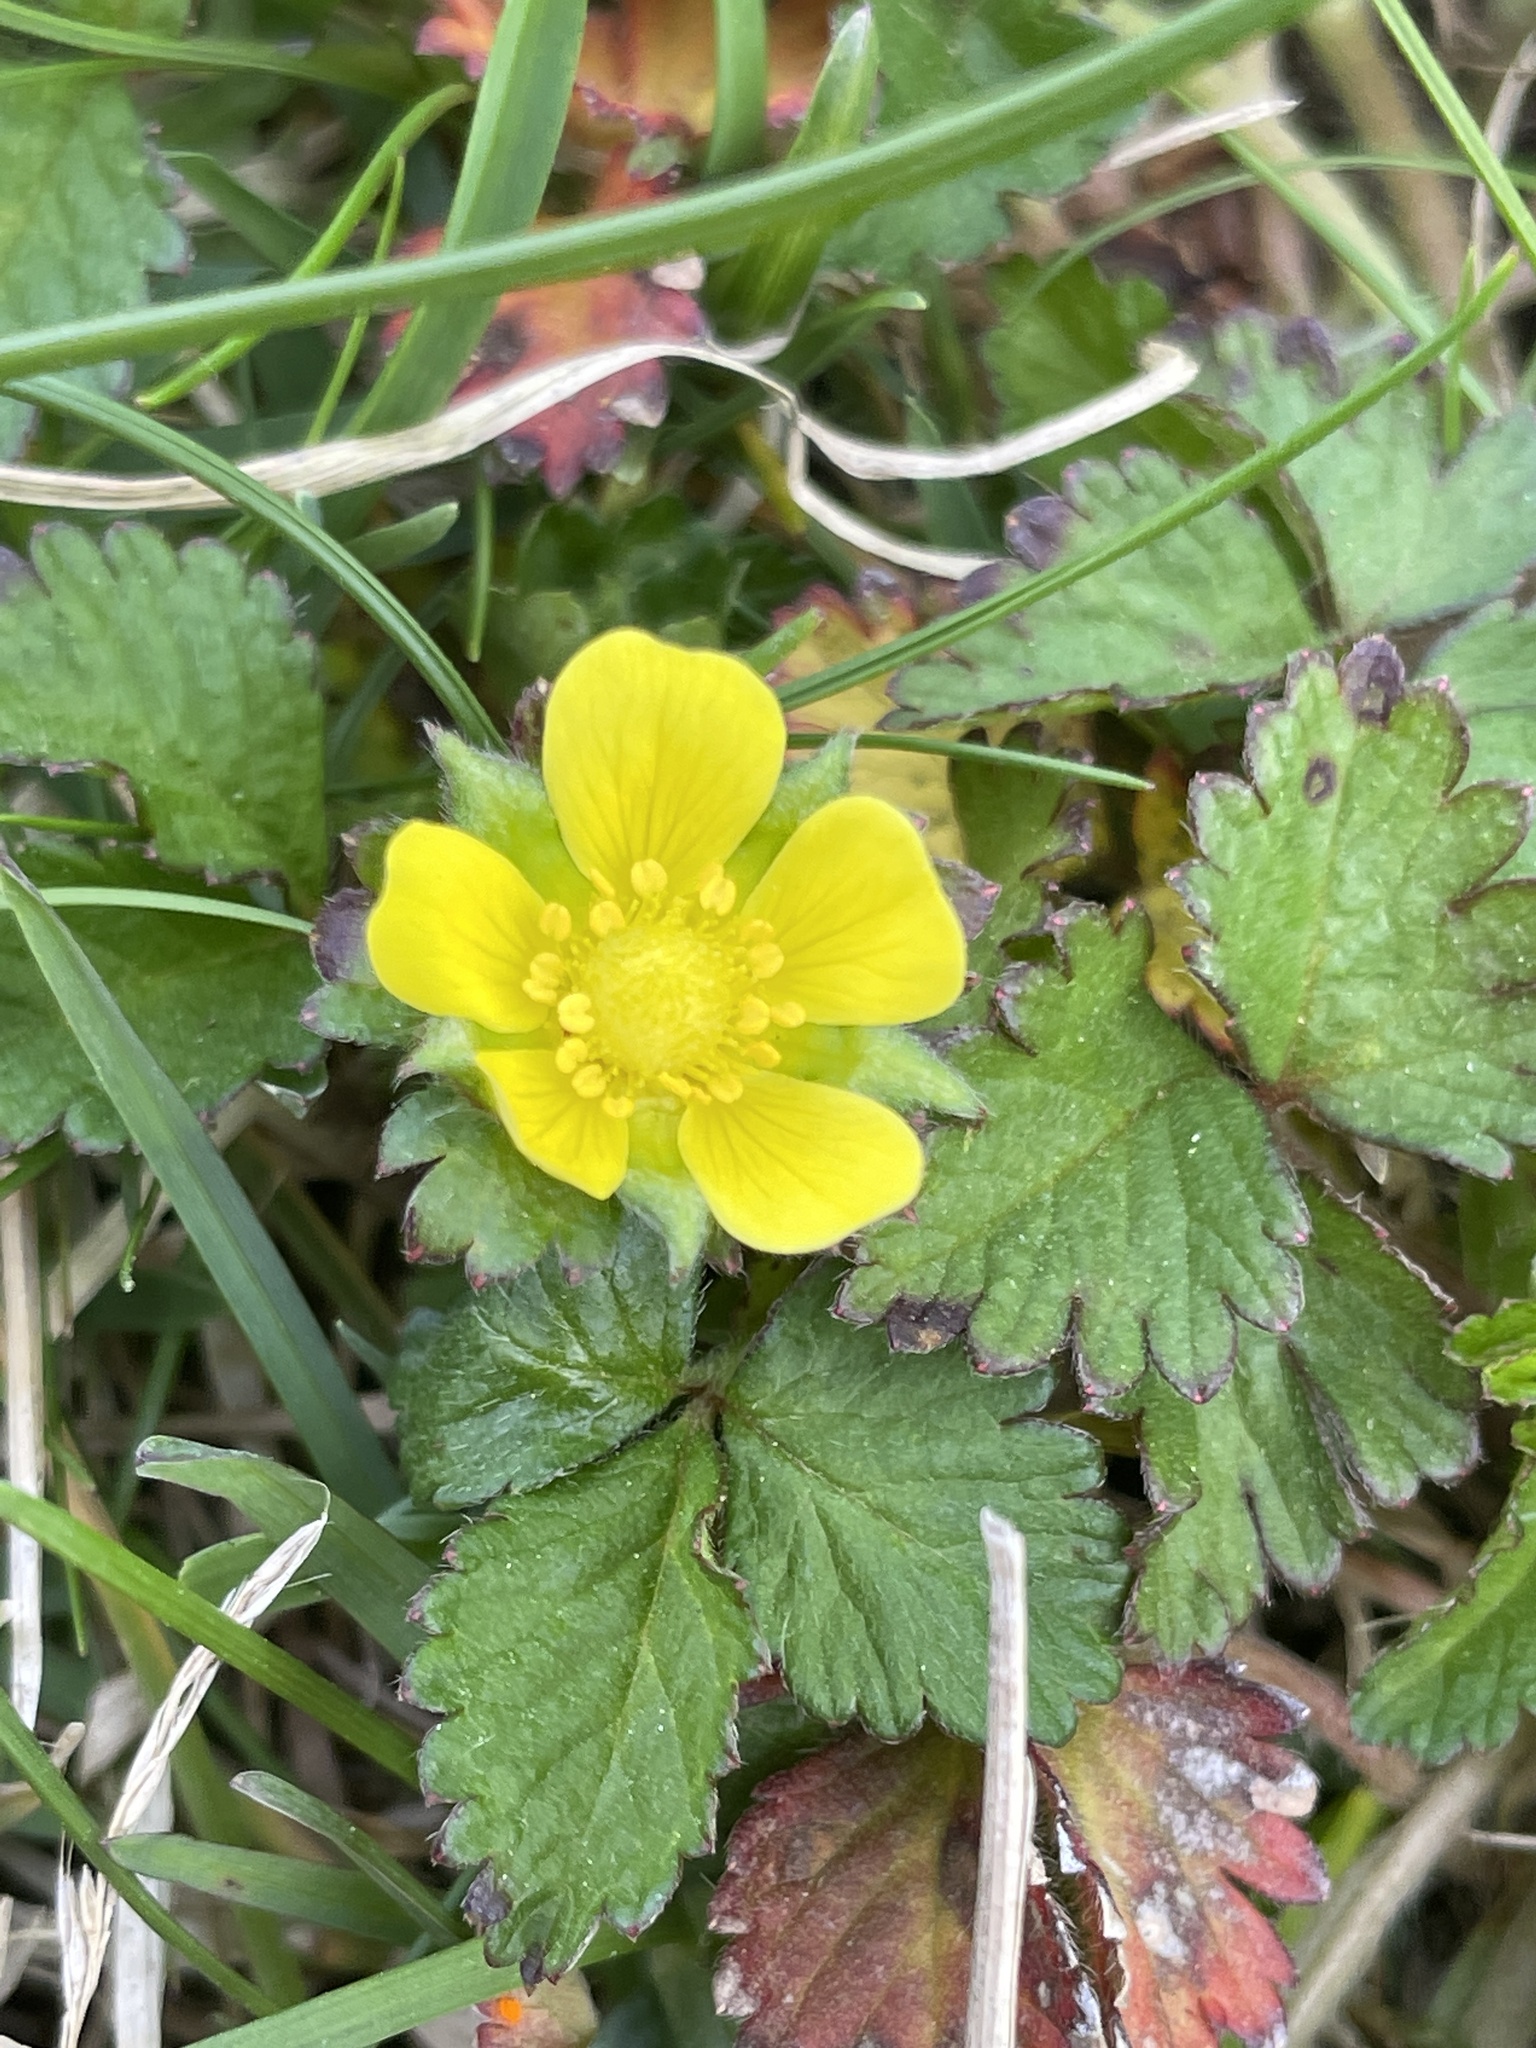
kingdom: Plantae
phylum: Tracheophyta
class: Magnoliopsida
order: Rosales
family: Rosaceae
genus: Potentilla
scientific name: Potentilla indica
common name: Yellow-flowered strawberry
